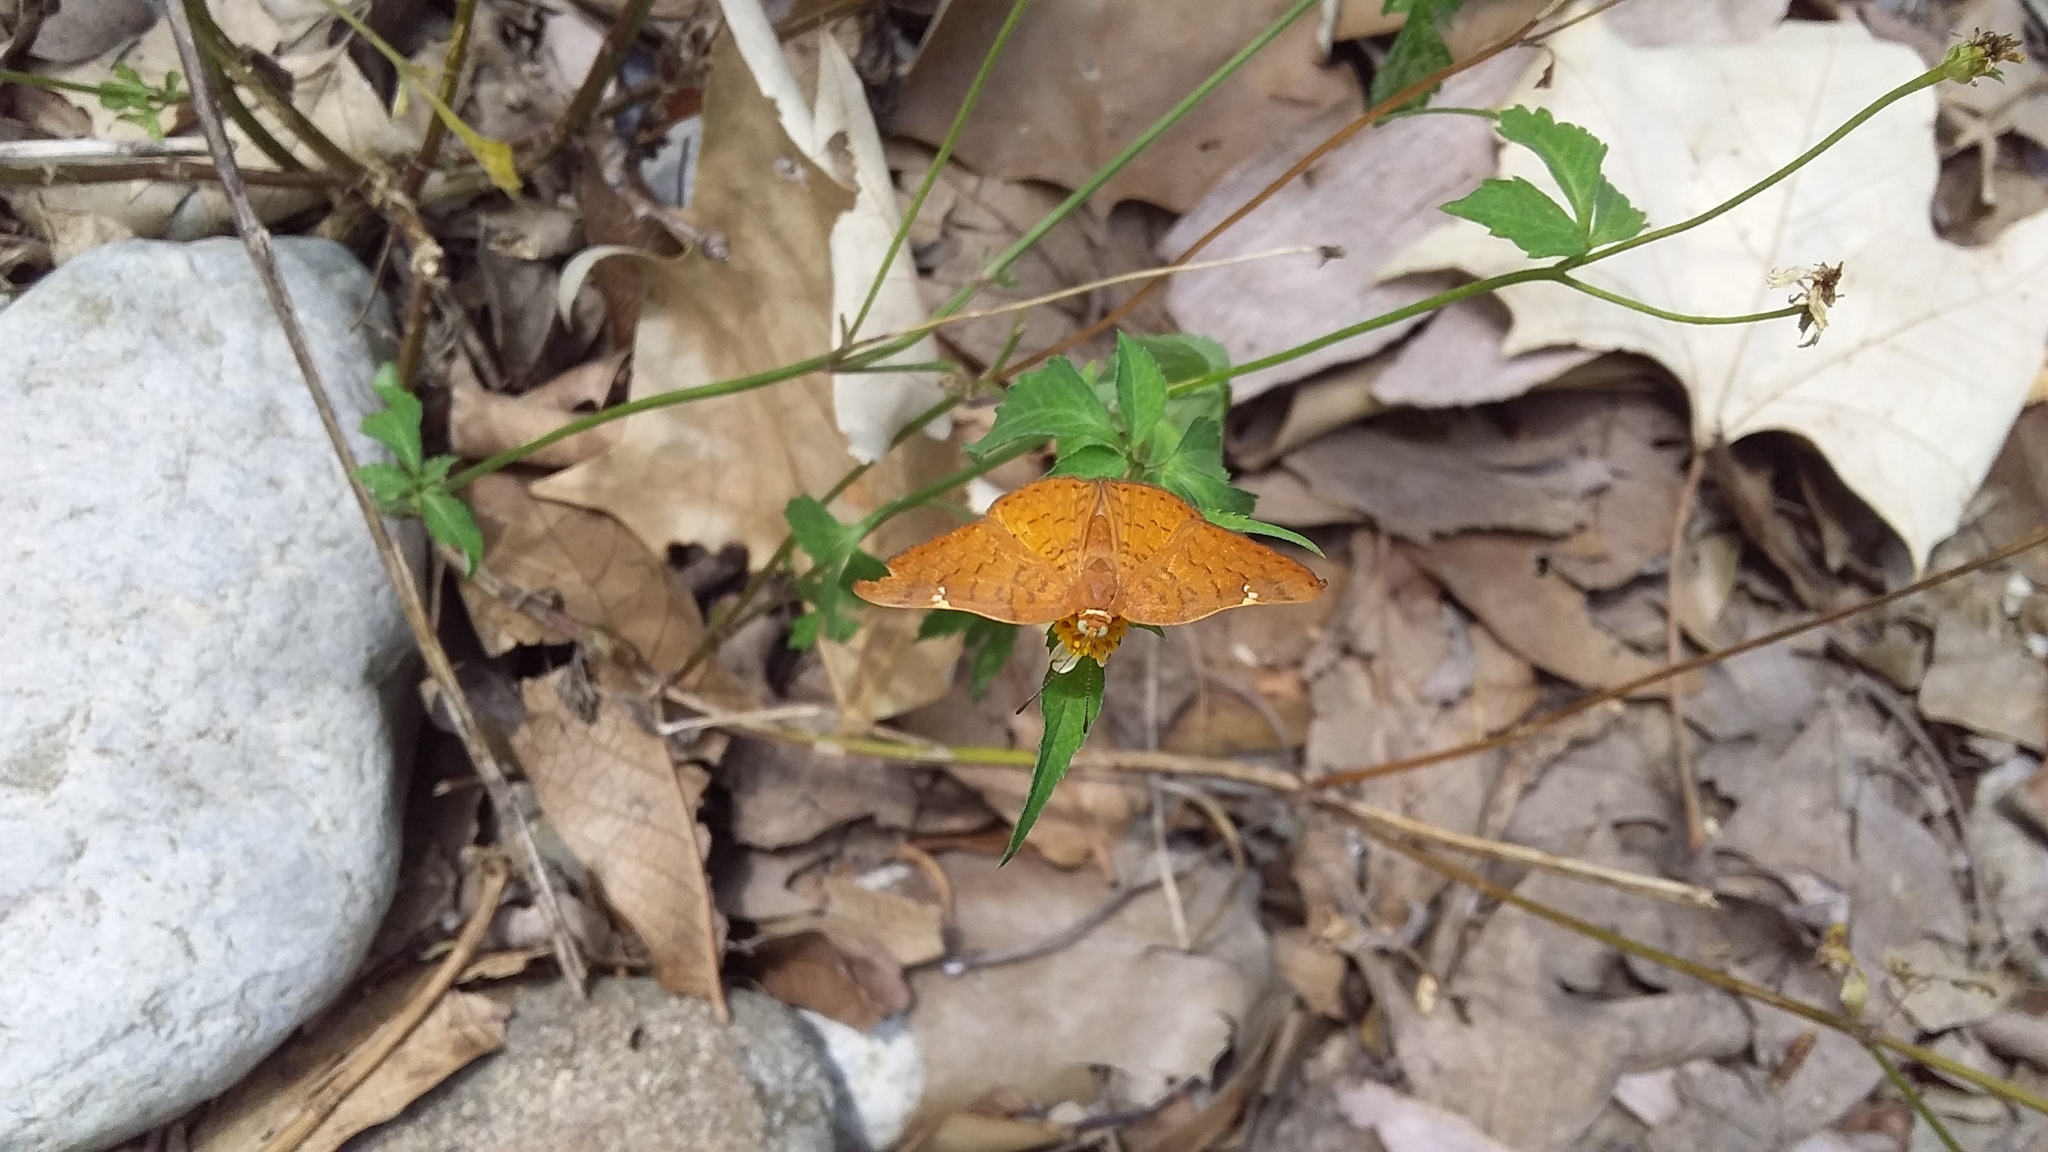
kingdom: Animalia
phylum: Arthropoda
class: Insecta
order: Lepidoptera
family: Riodinidae
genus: Curvie
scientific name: Curvie emesia
